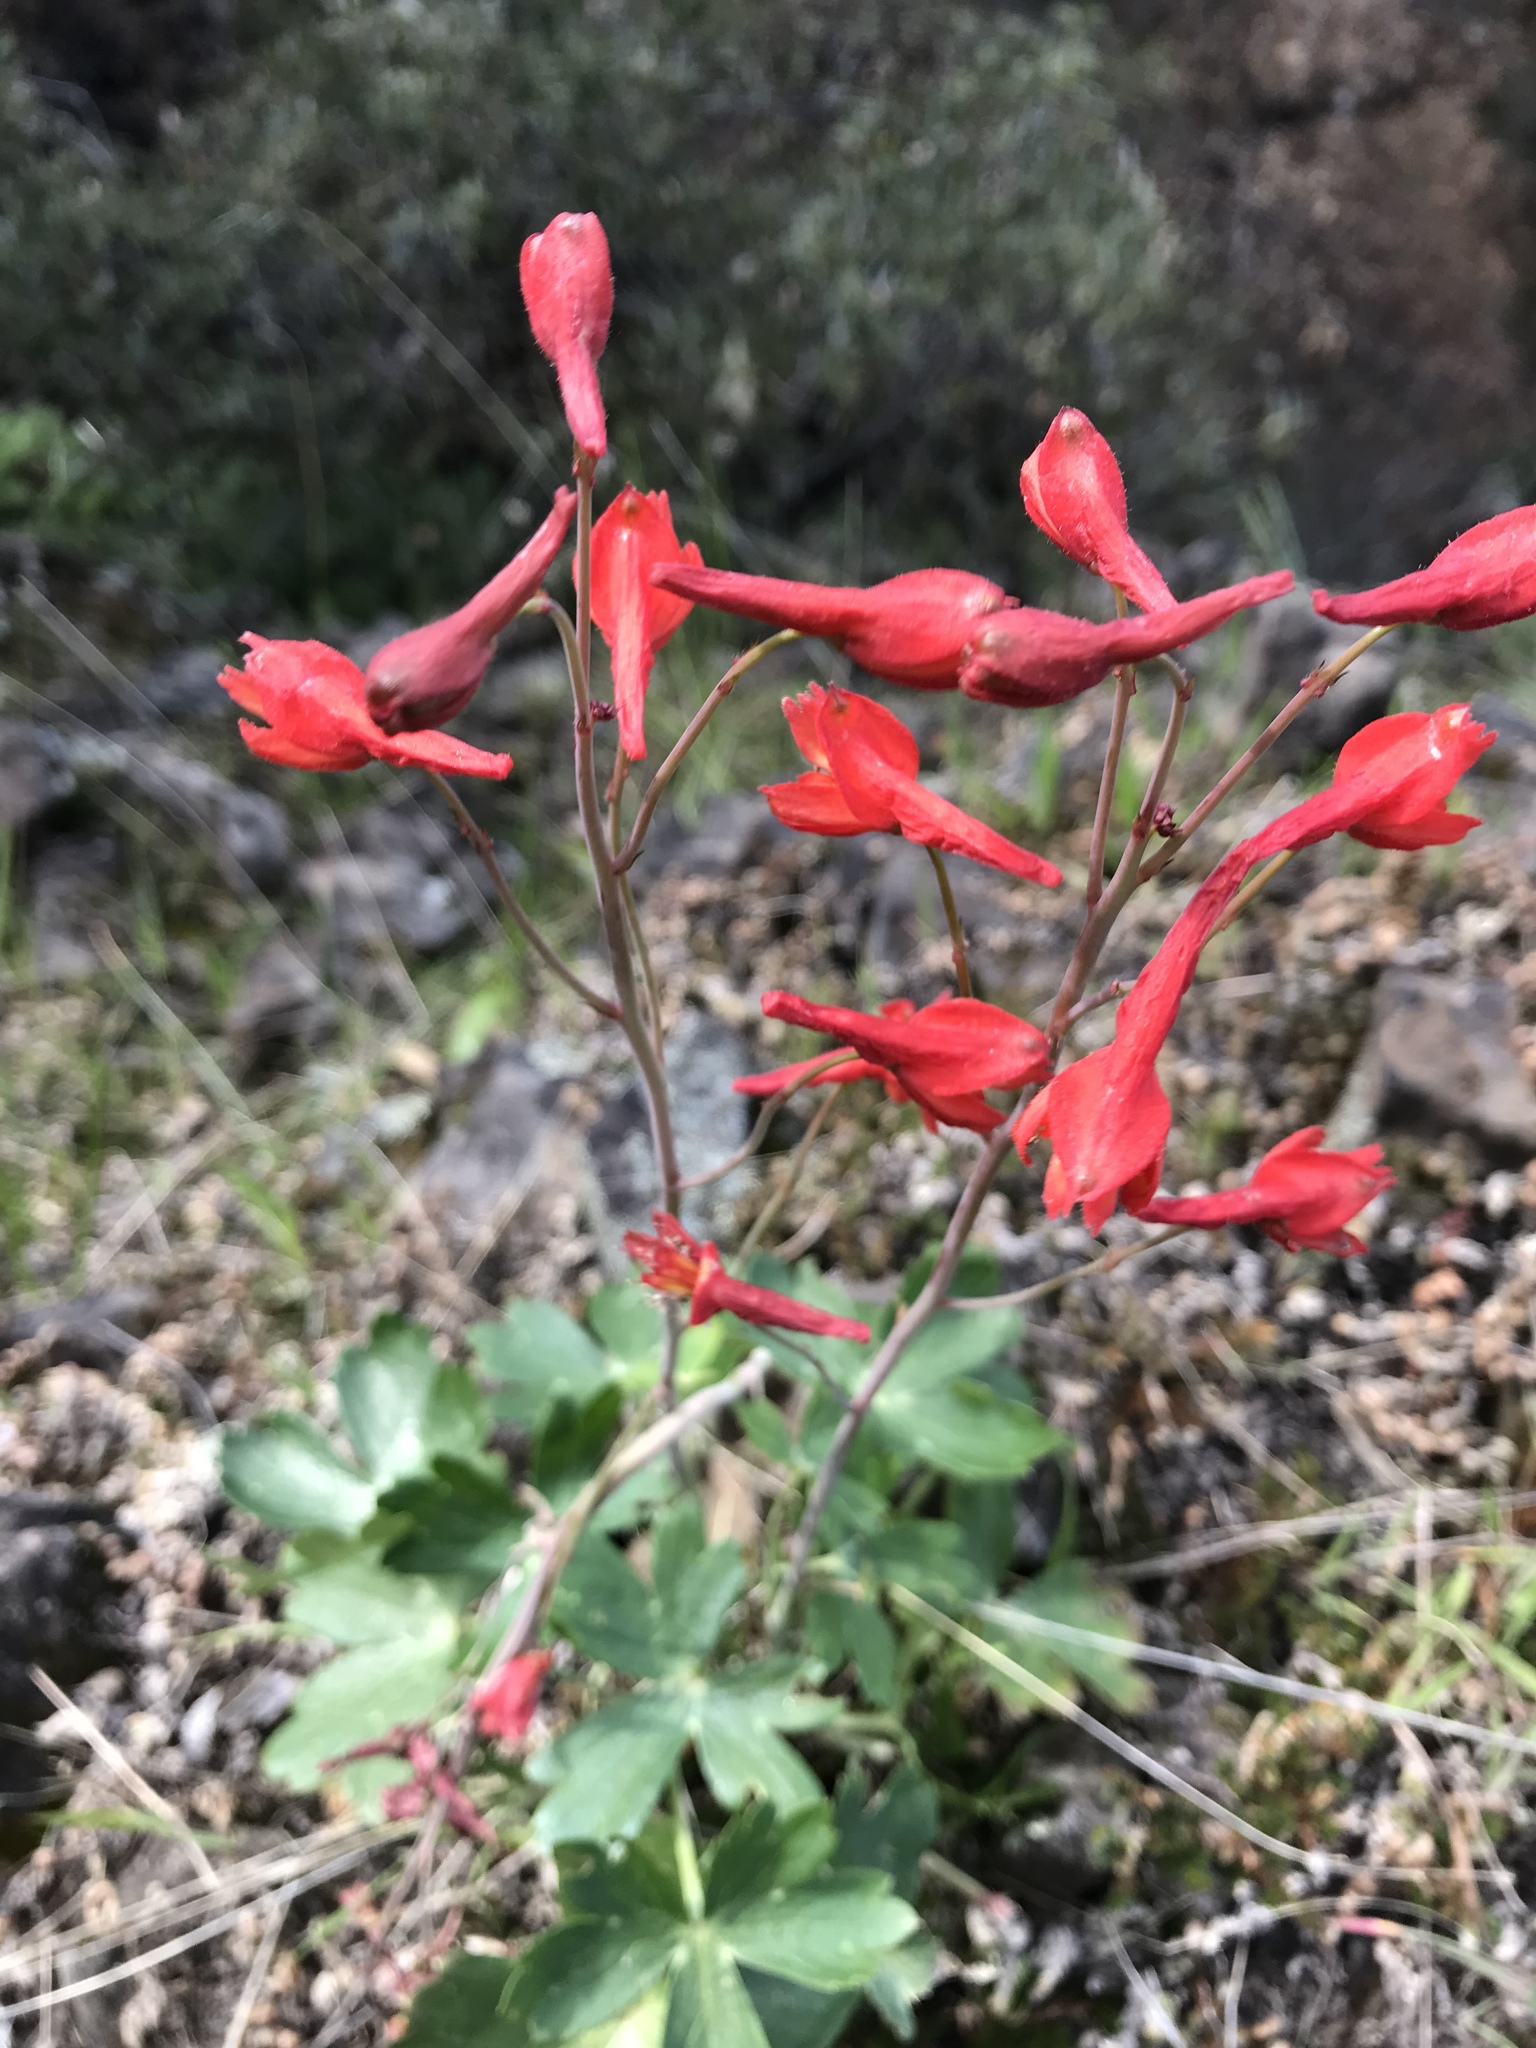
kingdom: Plantae
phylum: Tracheophyta
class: Magnoliopsida
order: Ranunculales
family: Ranunculaceae
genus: Delphinium
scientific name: Delphinium nudicaule
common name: Red larkspur
